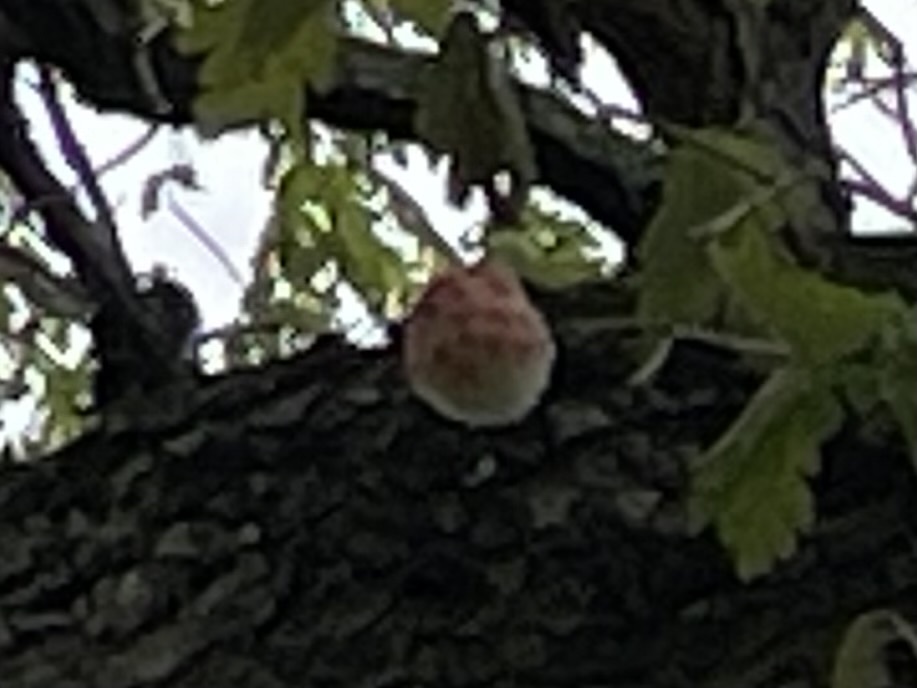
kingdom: Animalia
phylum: Arthropoda
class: Insecta
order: Hymenoptera
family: Cynipidae
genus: Callirhytis
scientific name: Callirhytis
